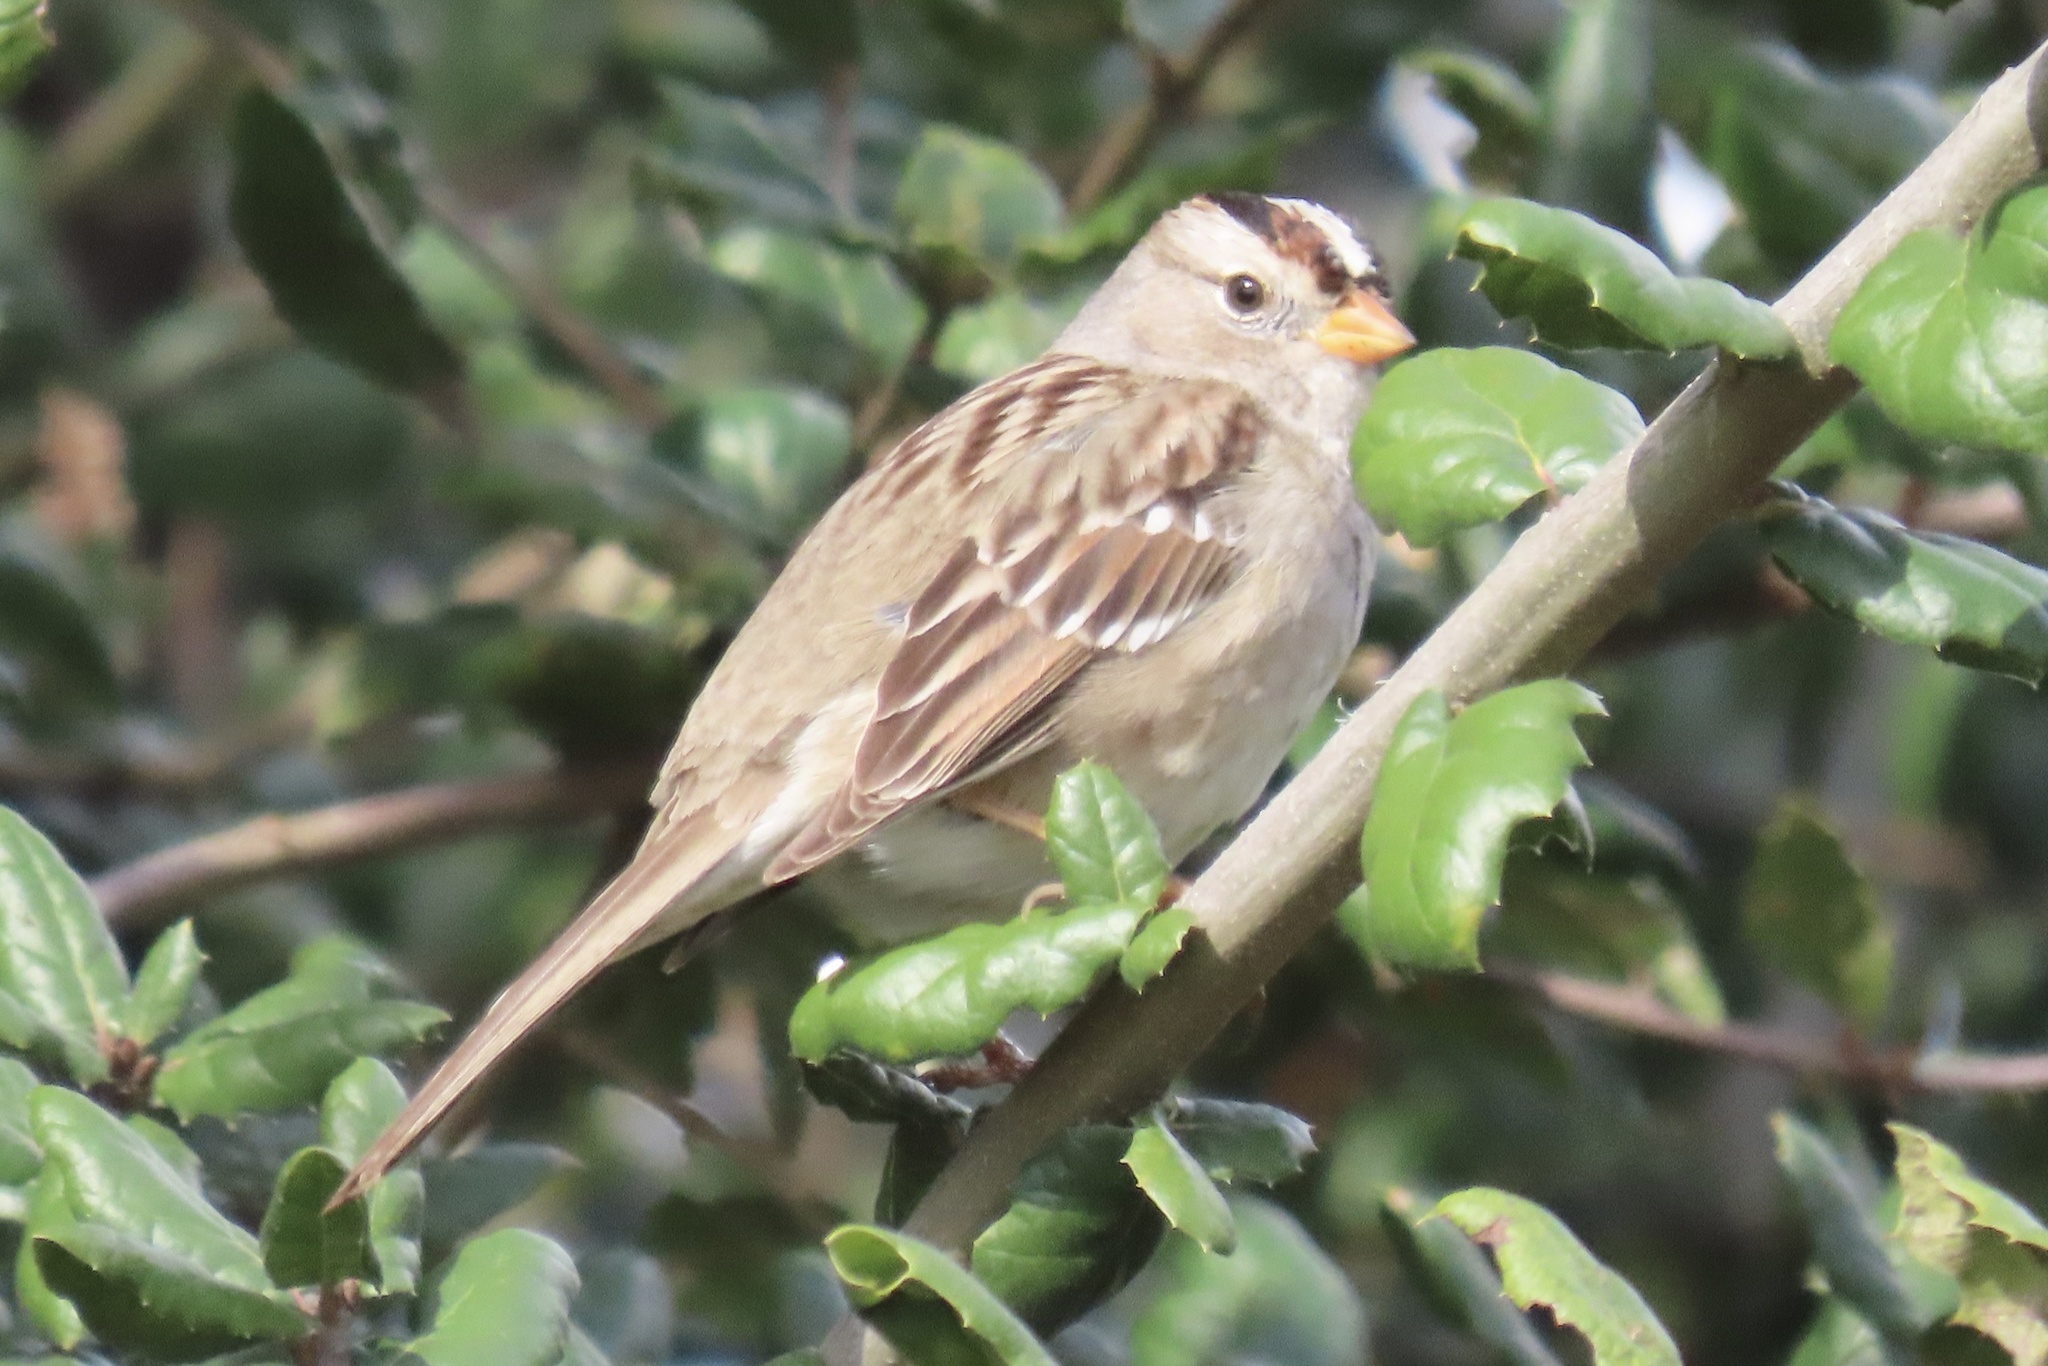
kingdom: Animalia
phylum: Chordata
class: Aves
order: Passeriformes
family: Passerellidae
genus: Zonotrichia
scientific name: Zonotrichia leucophrys
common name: White-crowned sparrow
